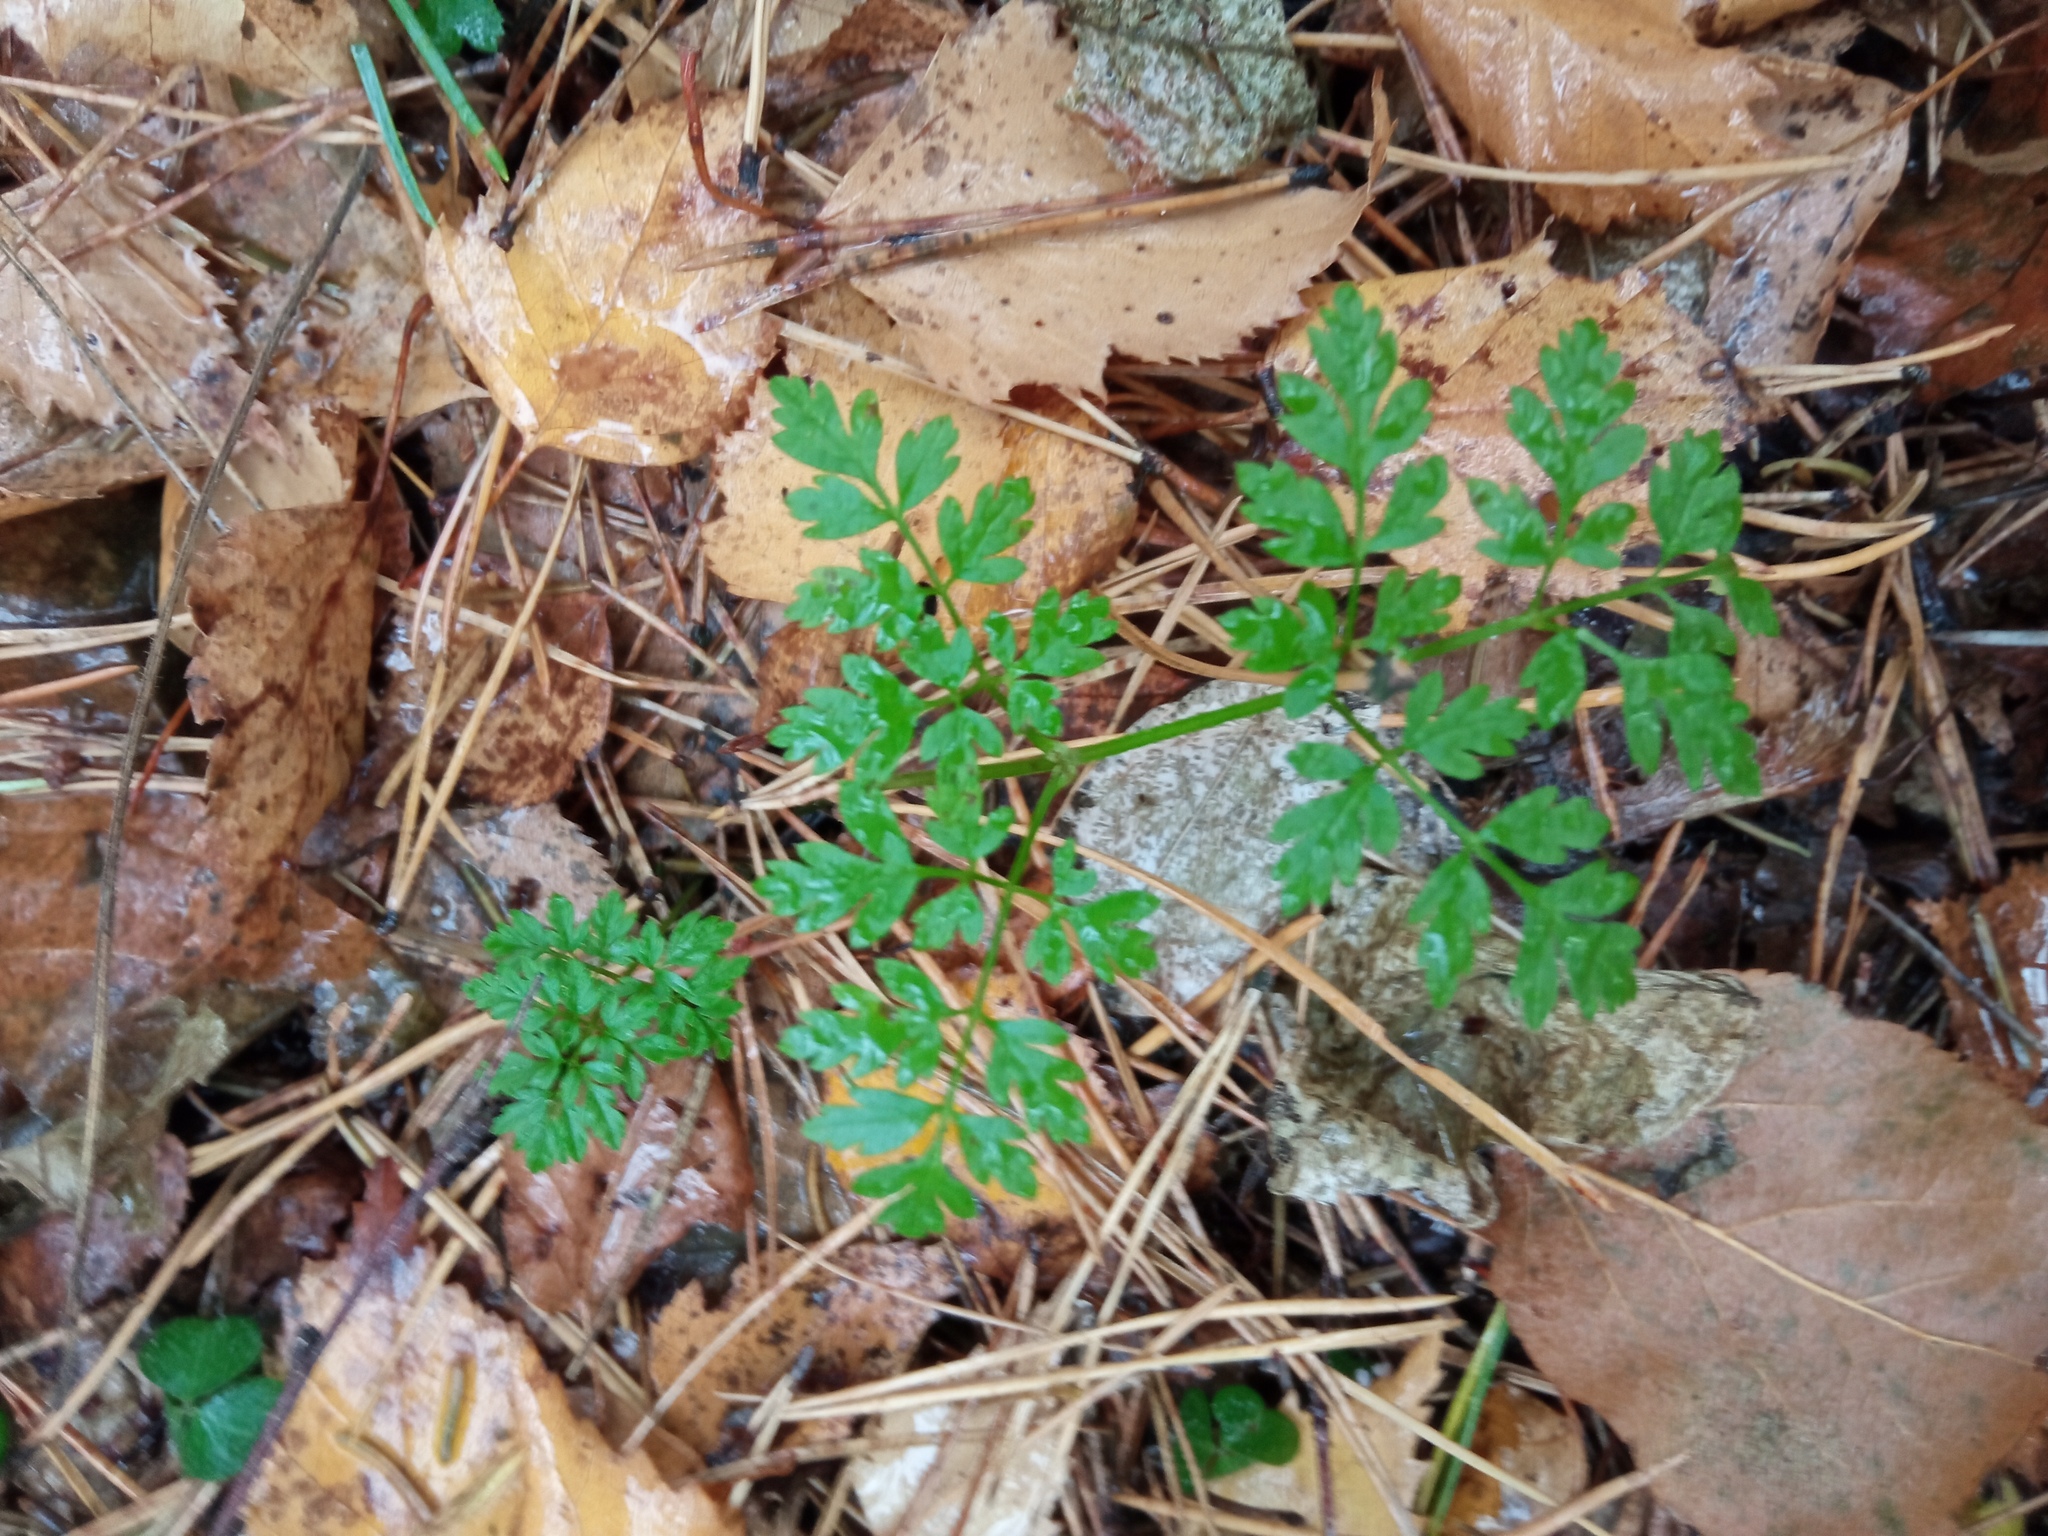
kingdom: Plantae
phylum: Tracheophyta
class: Magnoliopsida
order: Apiales
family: Apiaceae
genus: Anthriscus
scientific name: Anthriscus sylvestris
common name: Cow parsley
